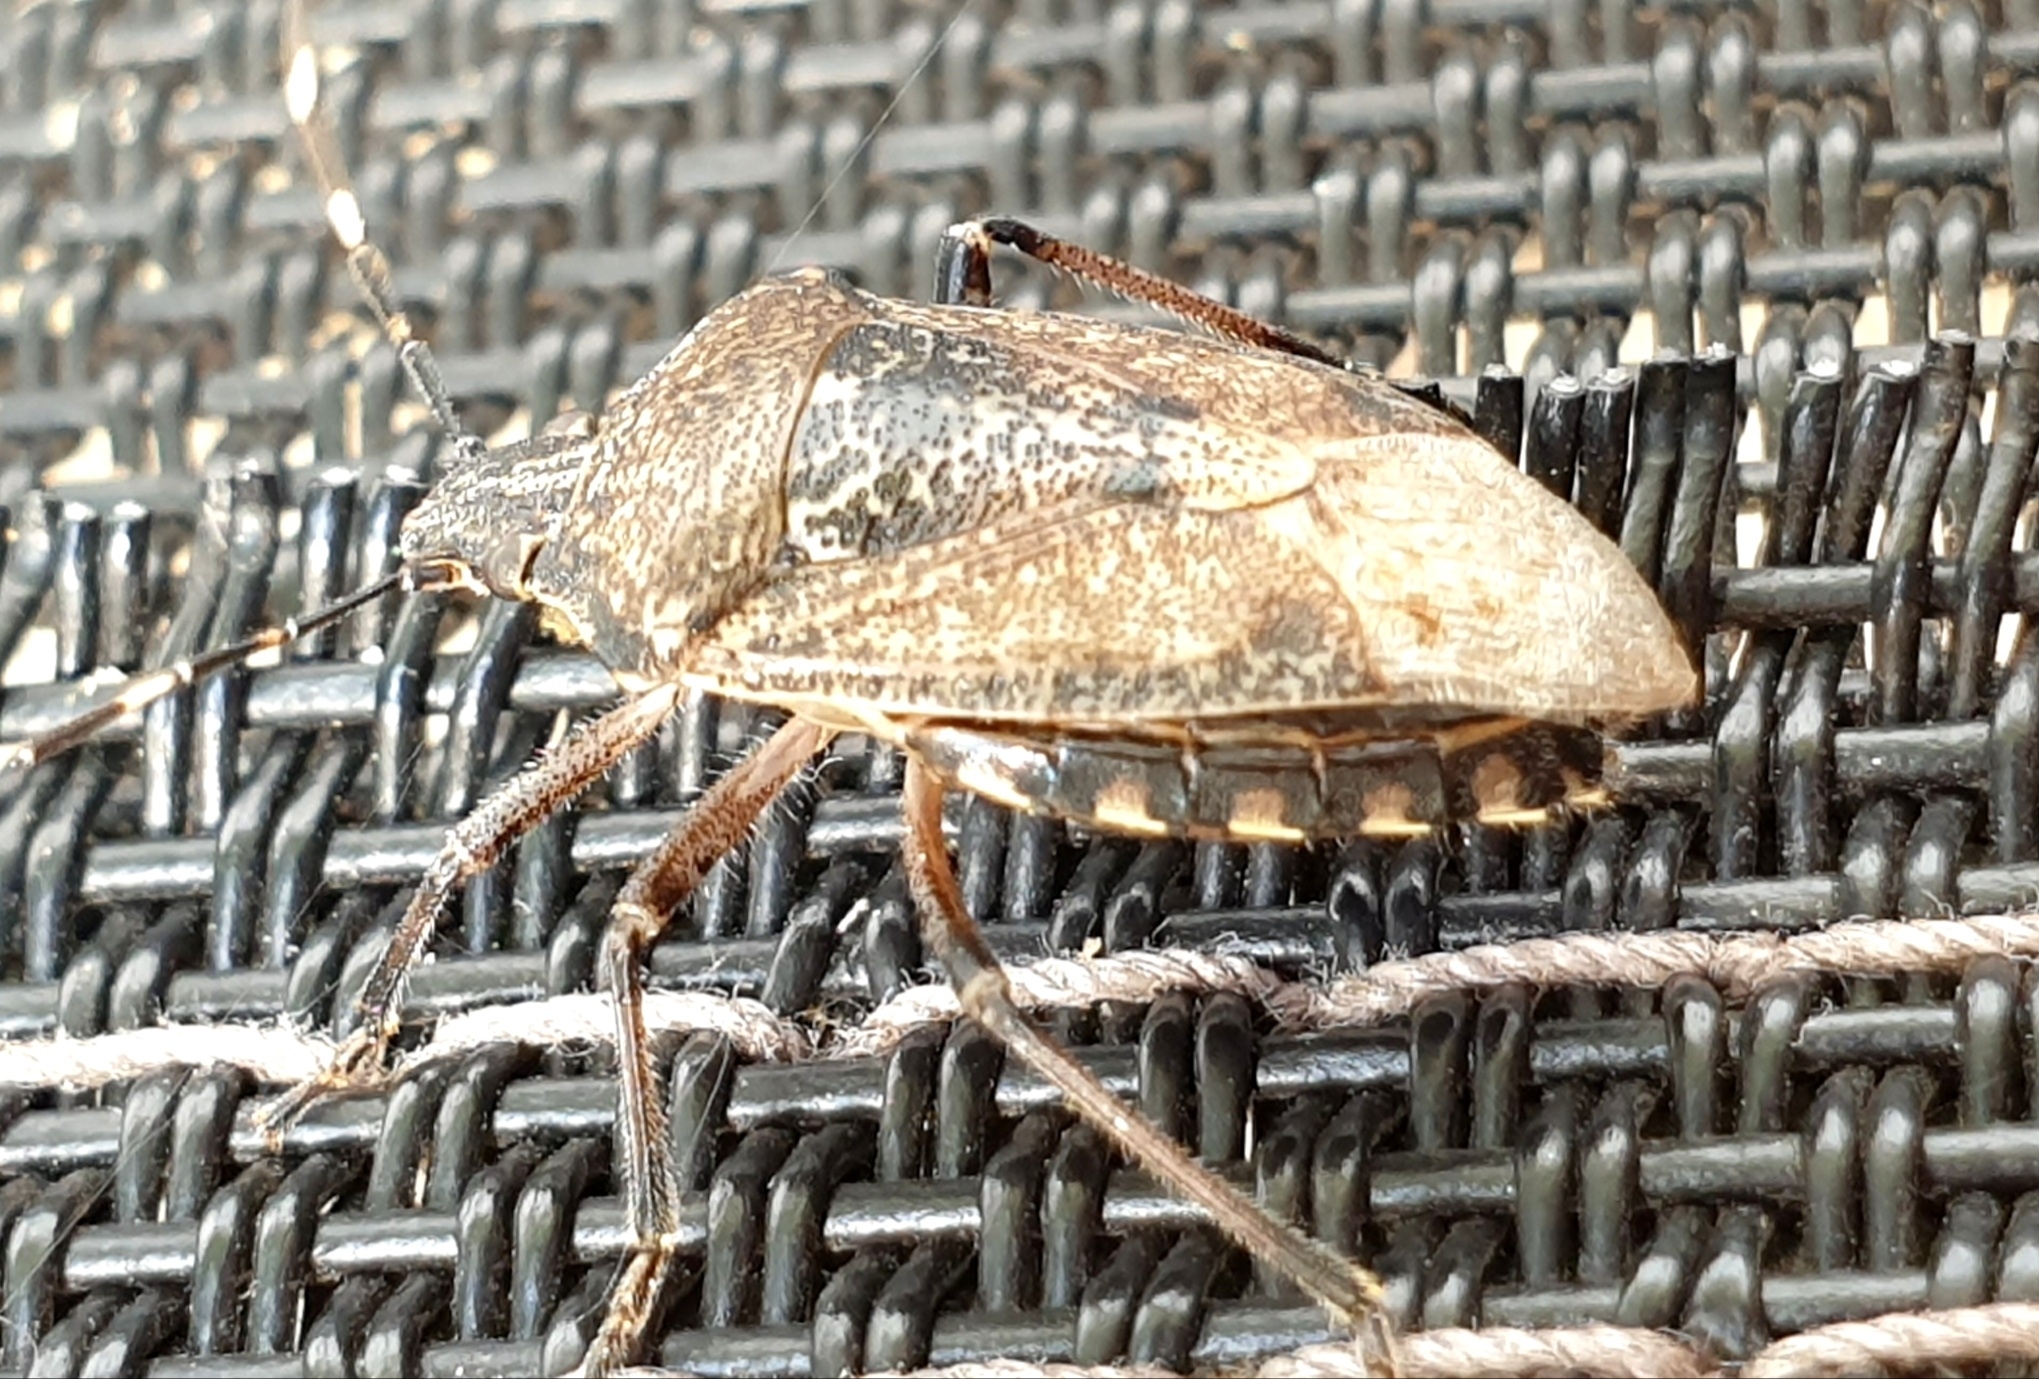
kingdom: Animalia
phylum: Arthropoda
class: Insecta
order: Hemiptera
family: Pentatomidae
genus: Rhaphigaster
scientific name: Rhaphigaster nebulosa
